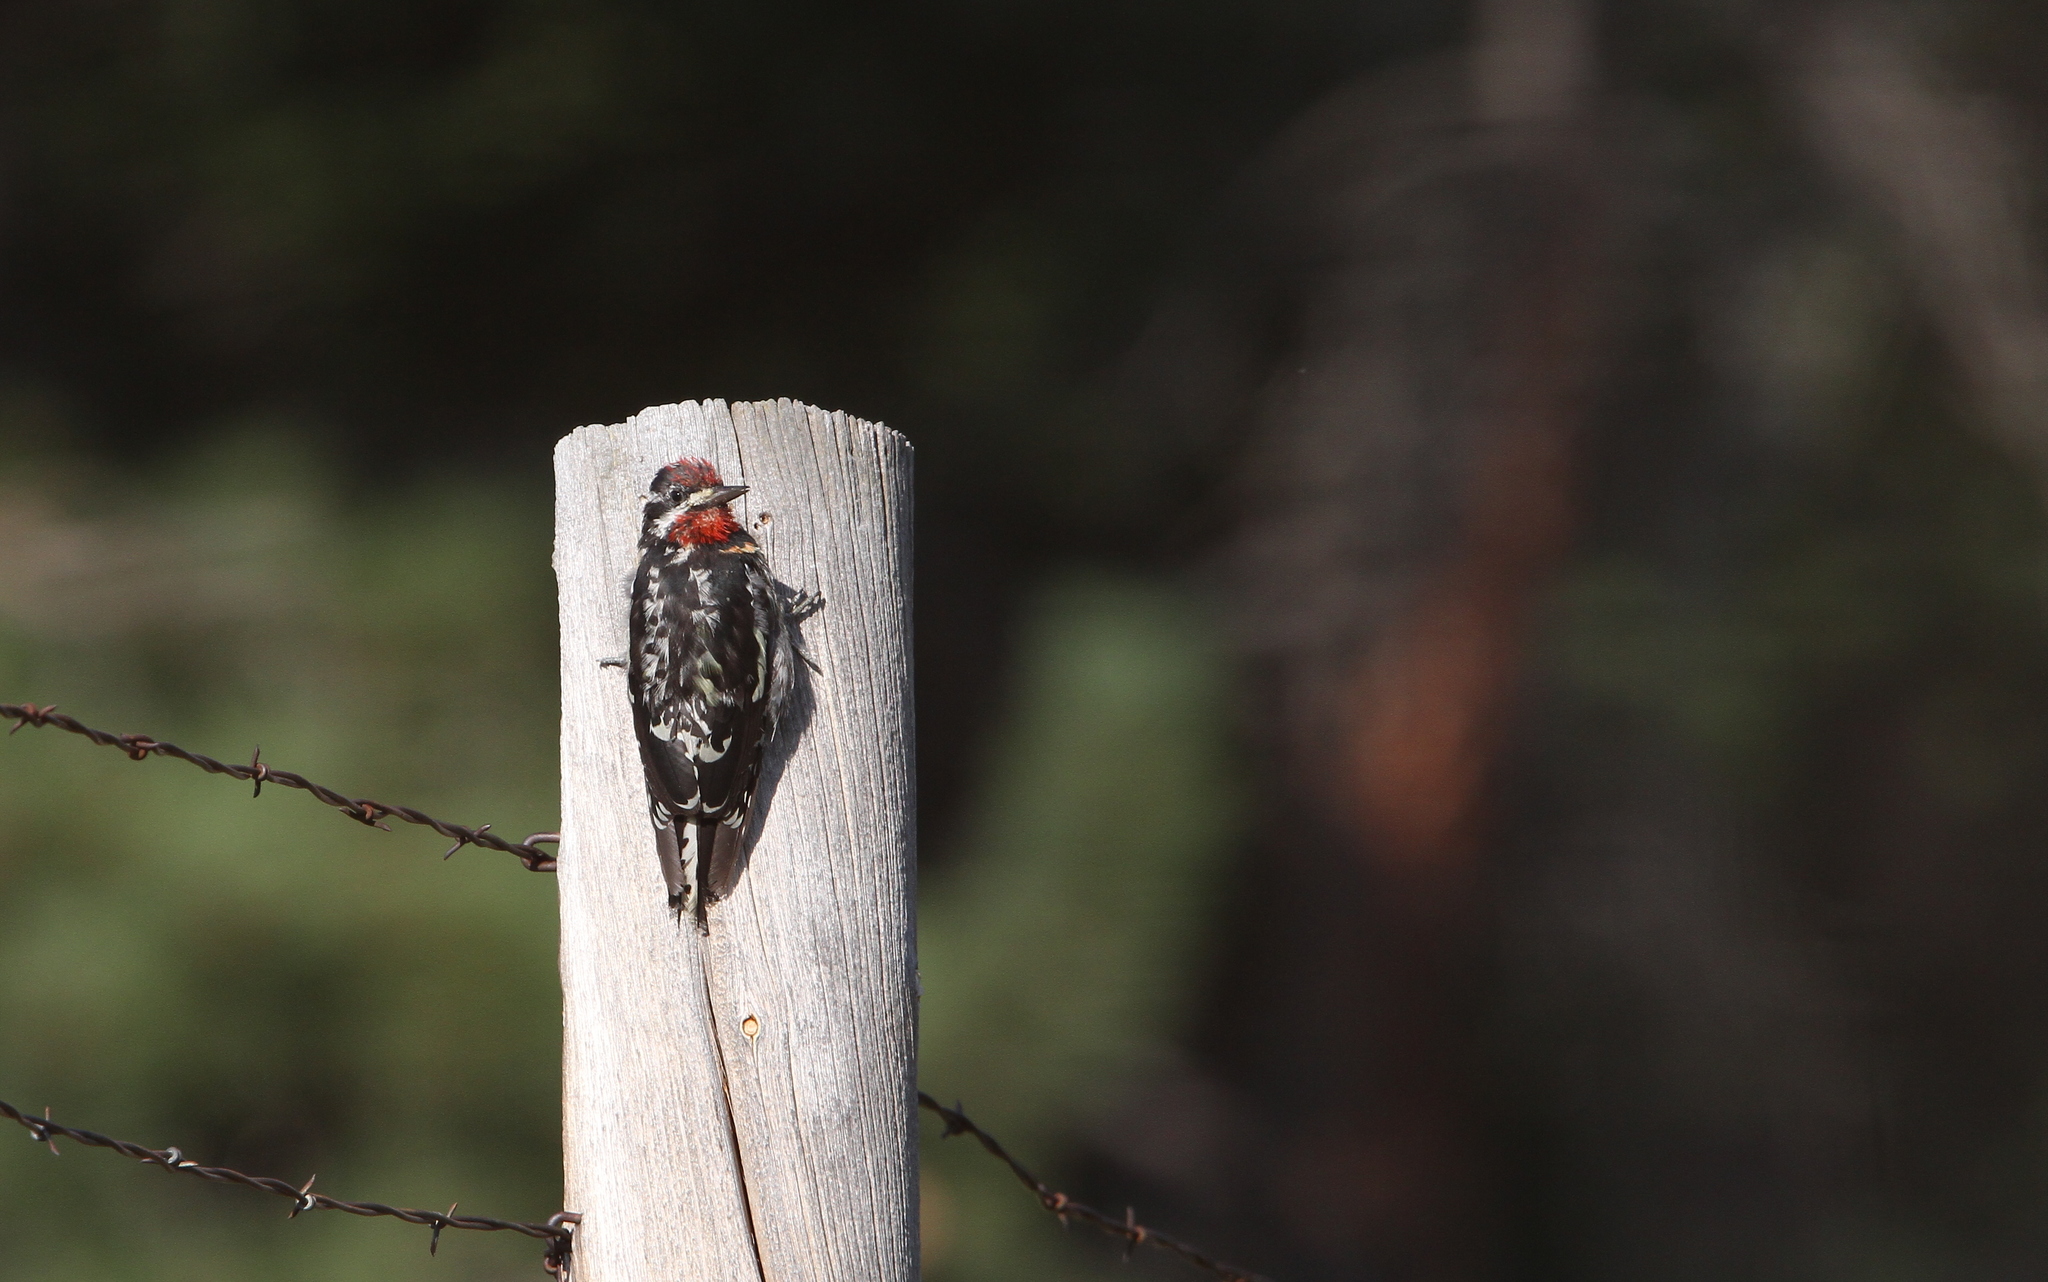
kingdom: Animalia
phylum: Chordata
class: Aves
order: Piciformes
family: Picidae
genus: Sphyrapicus
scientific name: Sphyrapicus nuchalis
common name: Red-naped sapsucker
